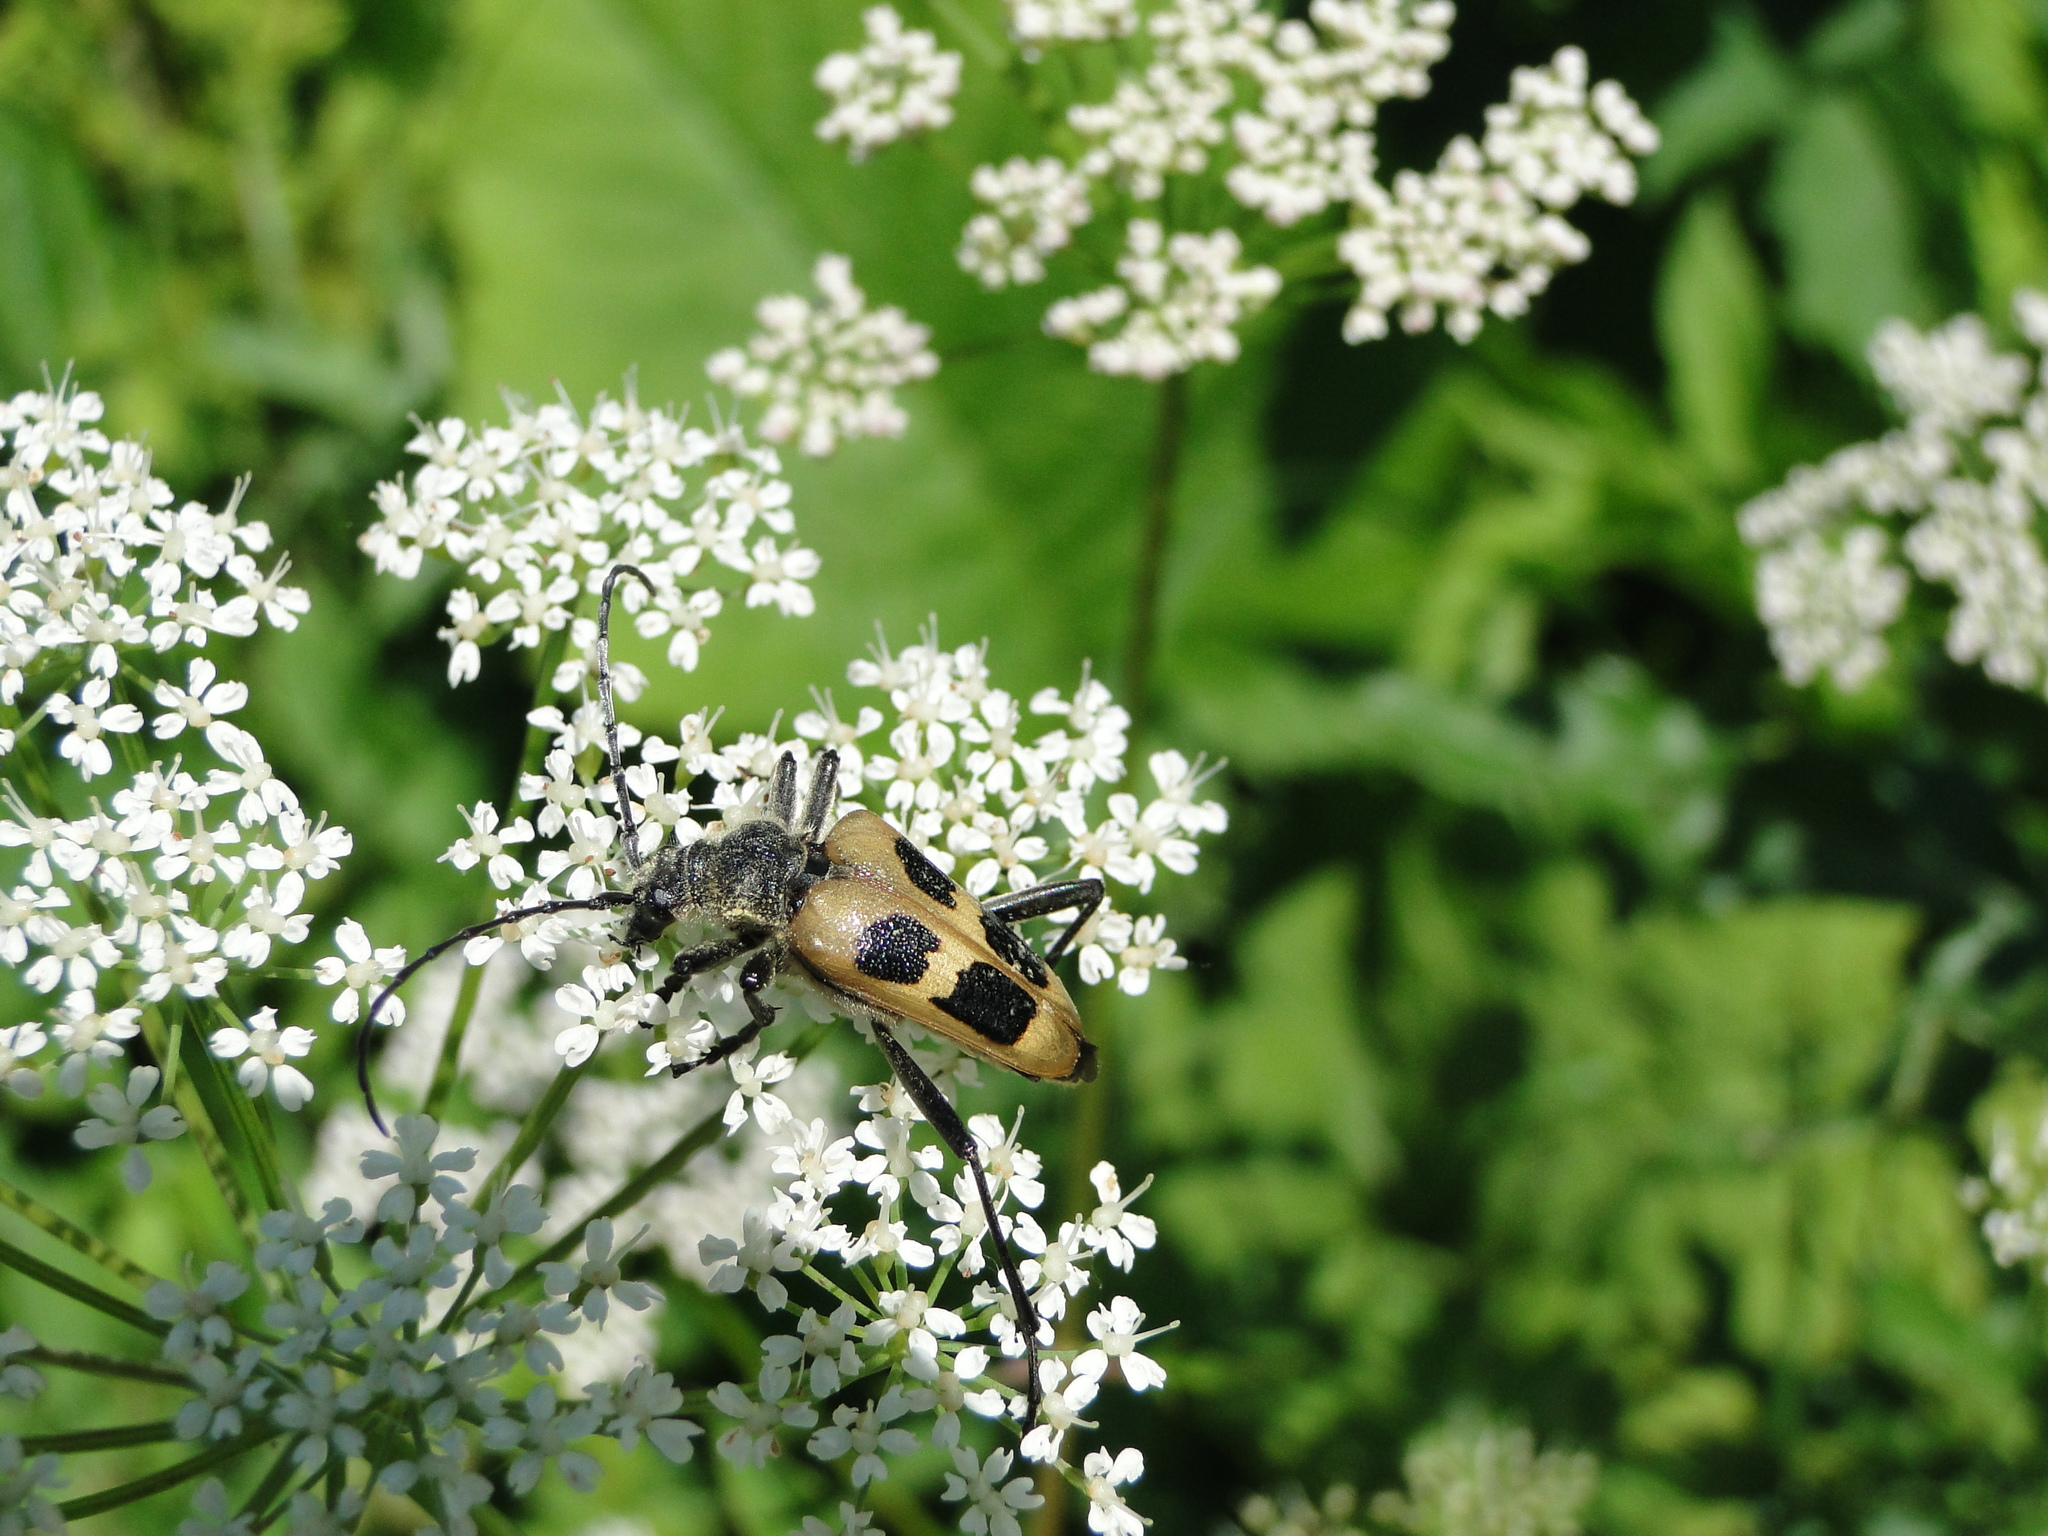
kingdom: Animalia
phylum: Arthropoda
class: Insecta
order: Coleoptera
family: Cerambycidae
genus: Pachyta
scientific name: Pachyta quadrimaculata
